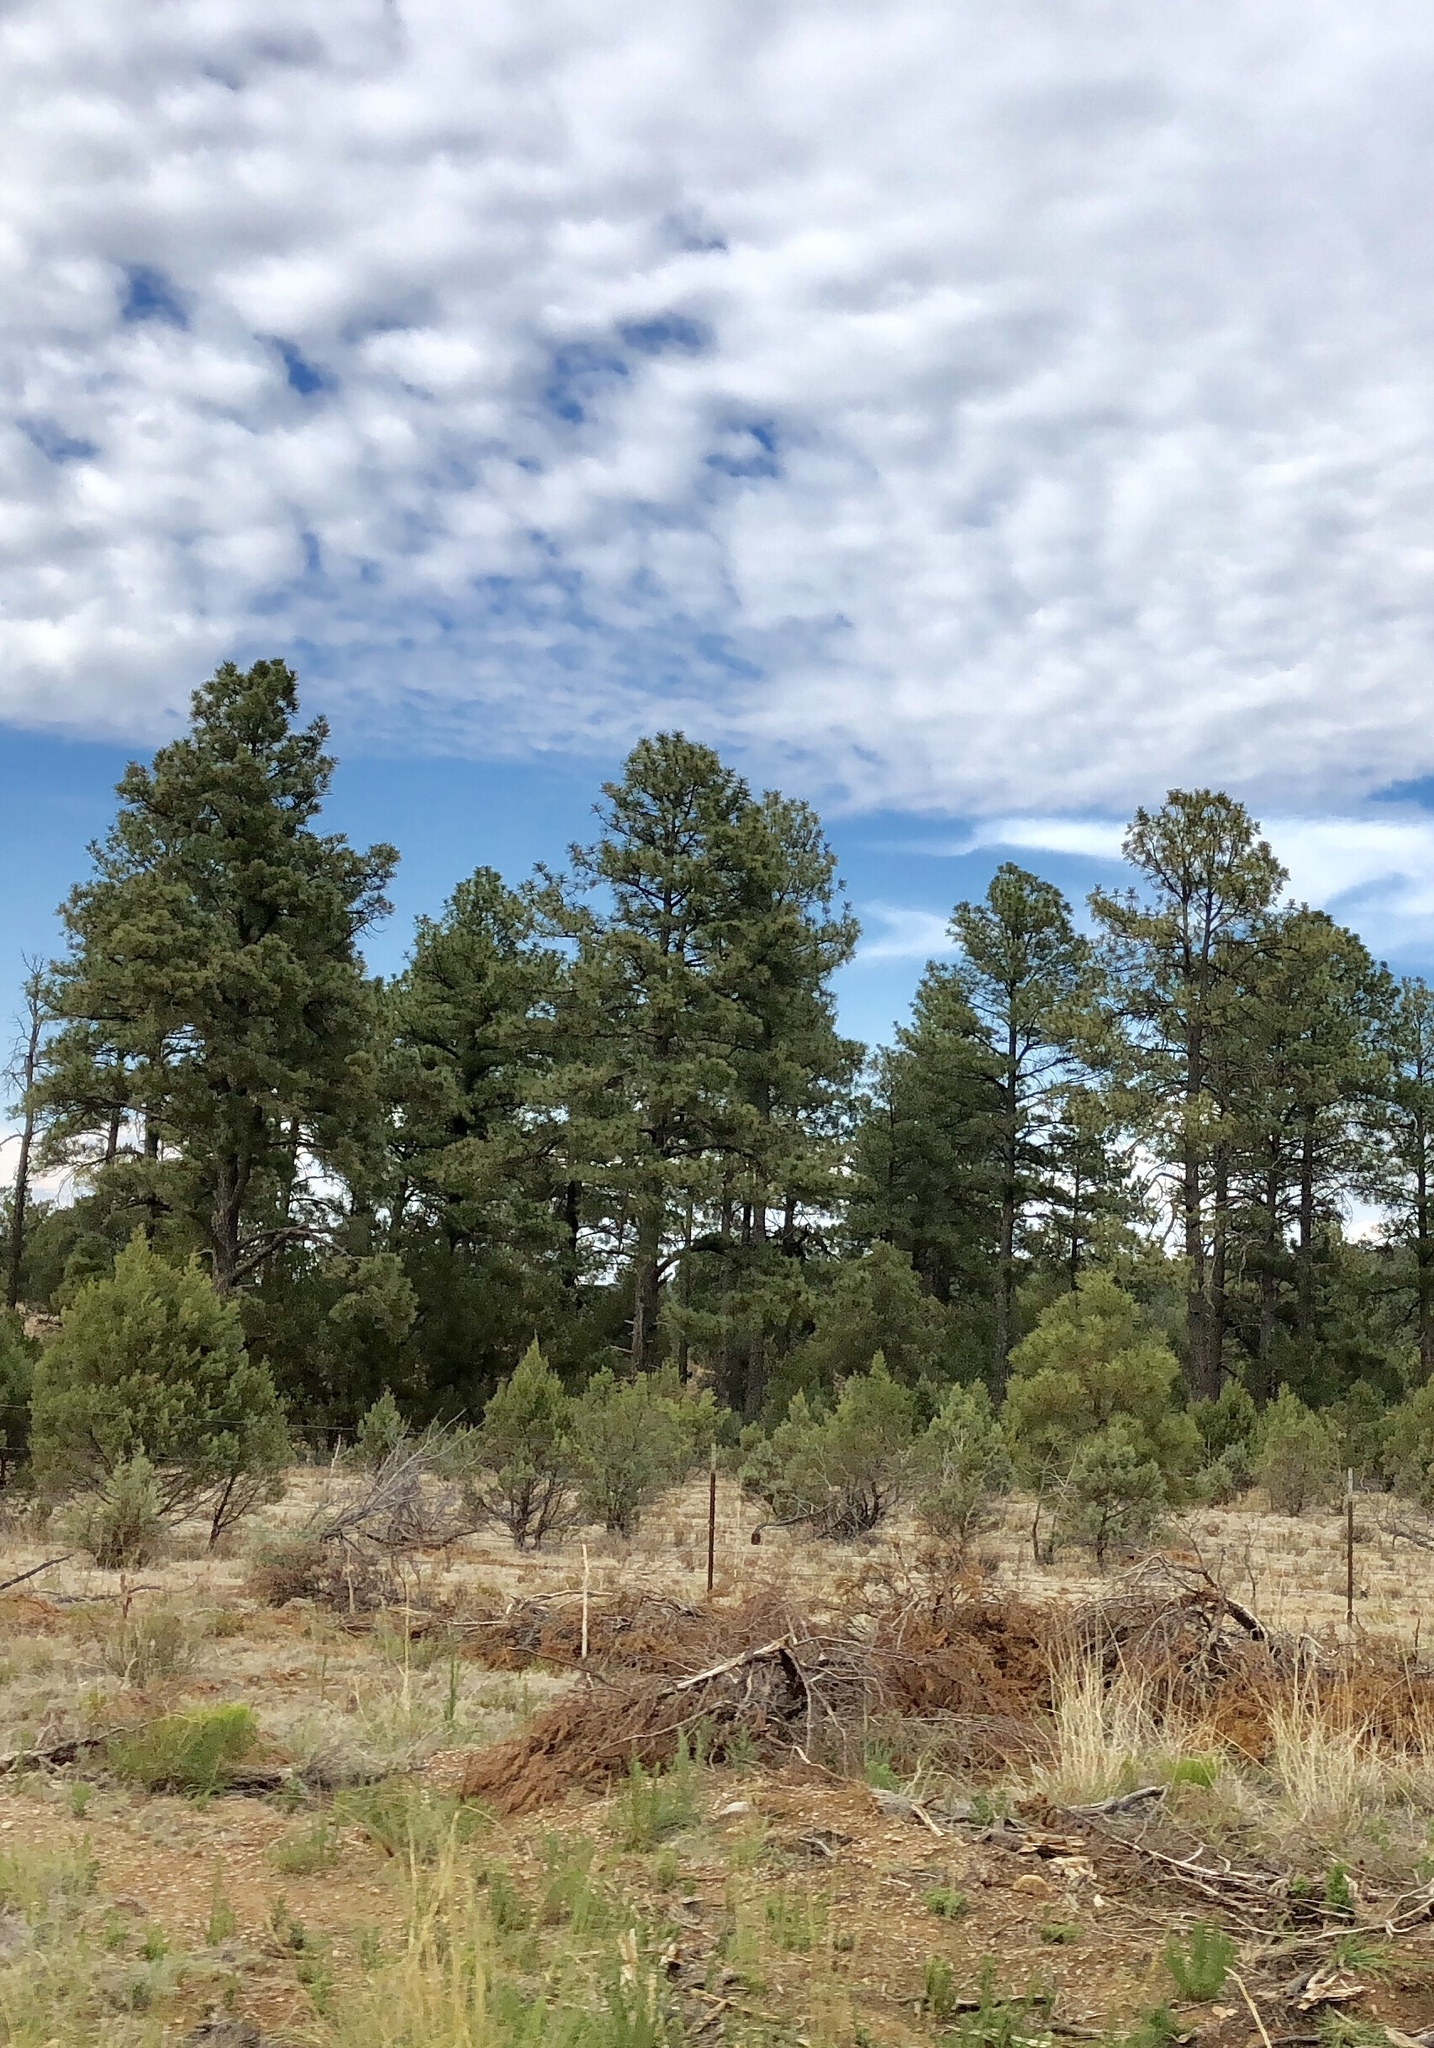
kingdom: Plantae
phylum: Tracheophyta
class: Pinopsida
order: Pinales
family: Pinaceae
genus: Pinus
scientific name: Pinus ponderosa
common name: Western yellow-pine
